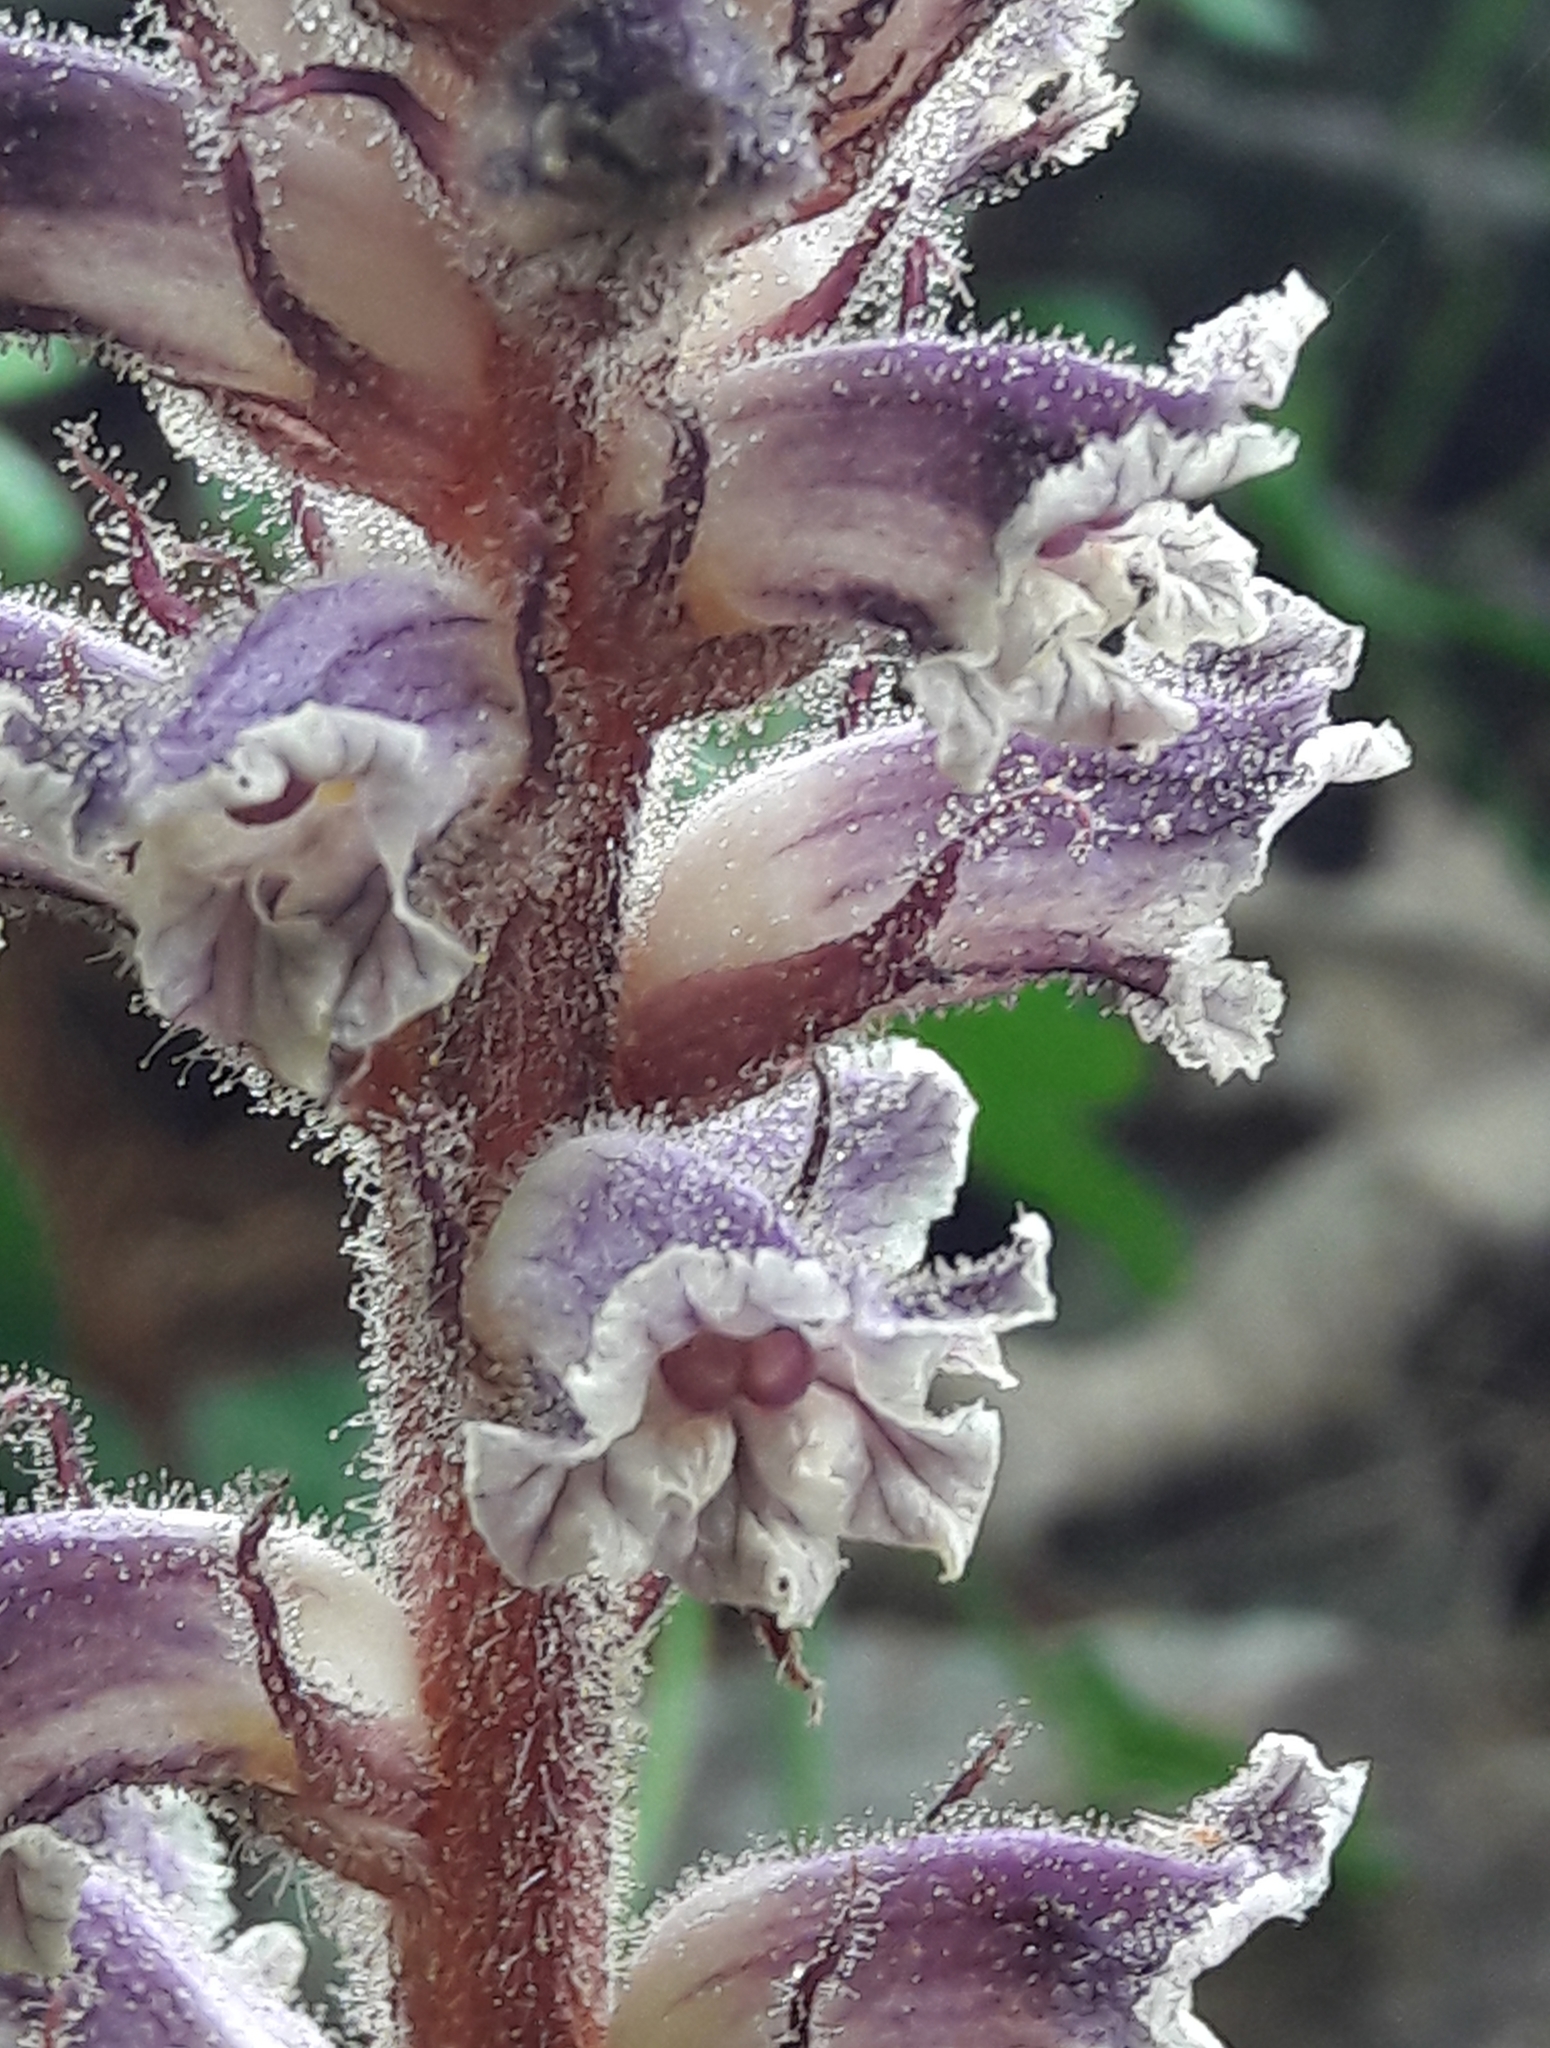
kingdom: Plantae
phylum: Tracheophyta
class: Magnoliopsida
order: Lamiales
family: Orobanchaceae
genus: Orobanche
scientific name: Orobanche minor
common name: Common broomrape
